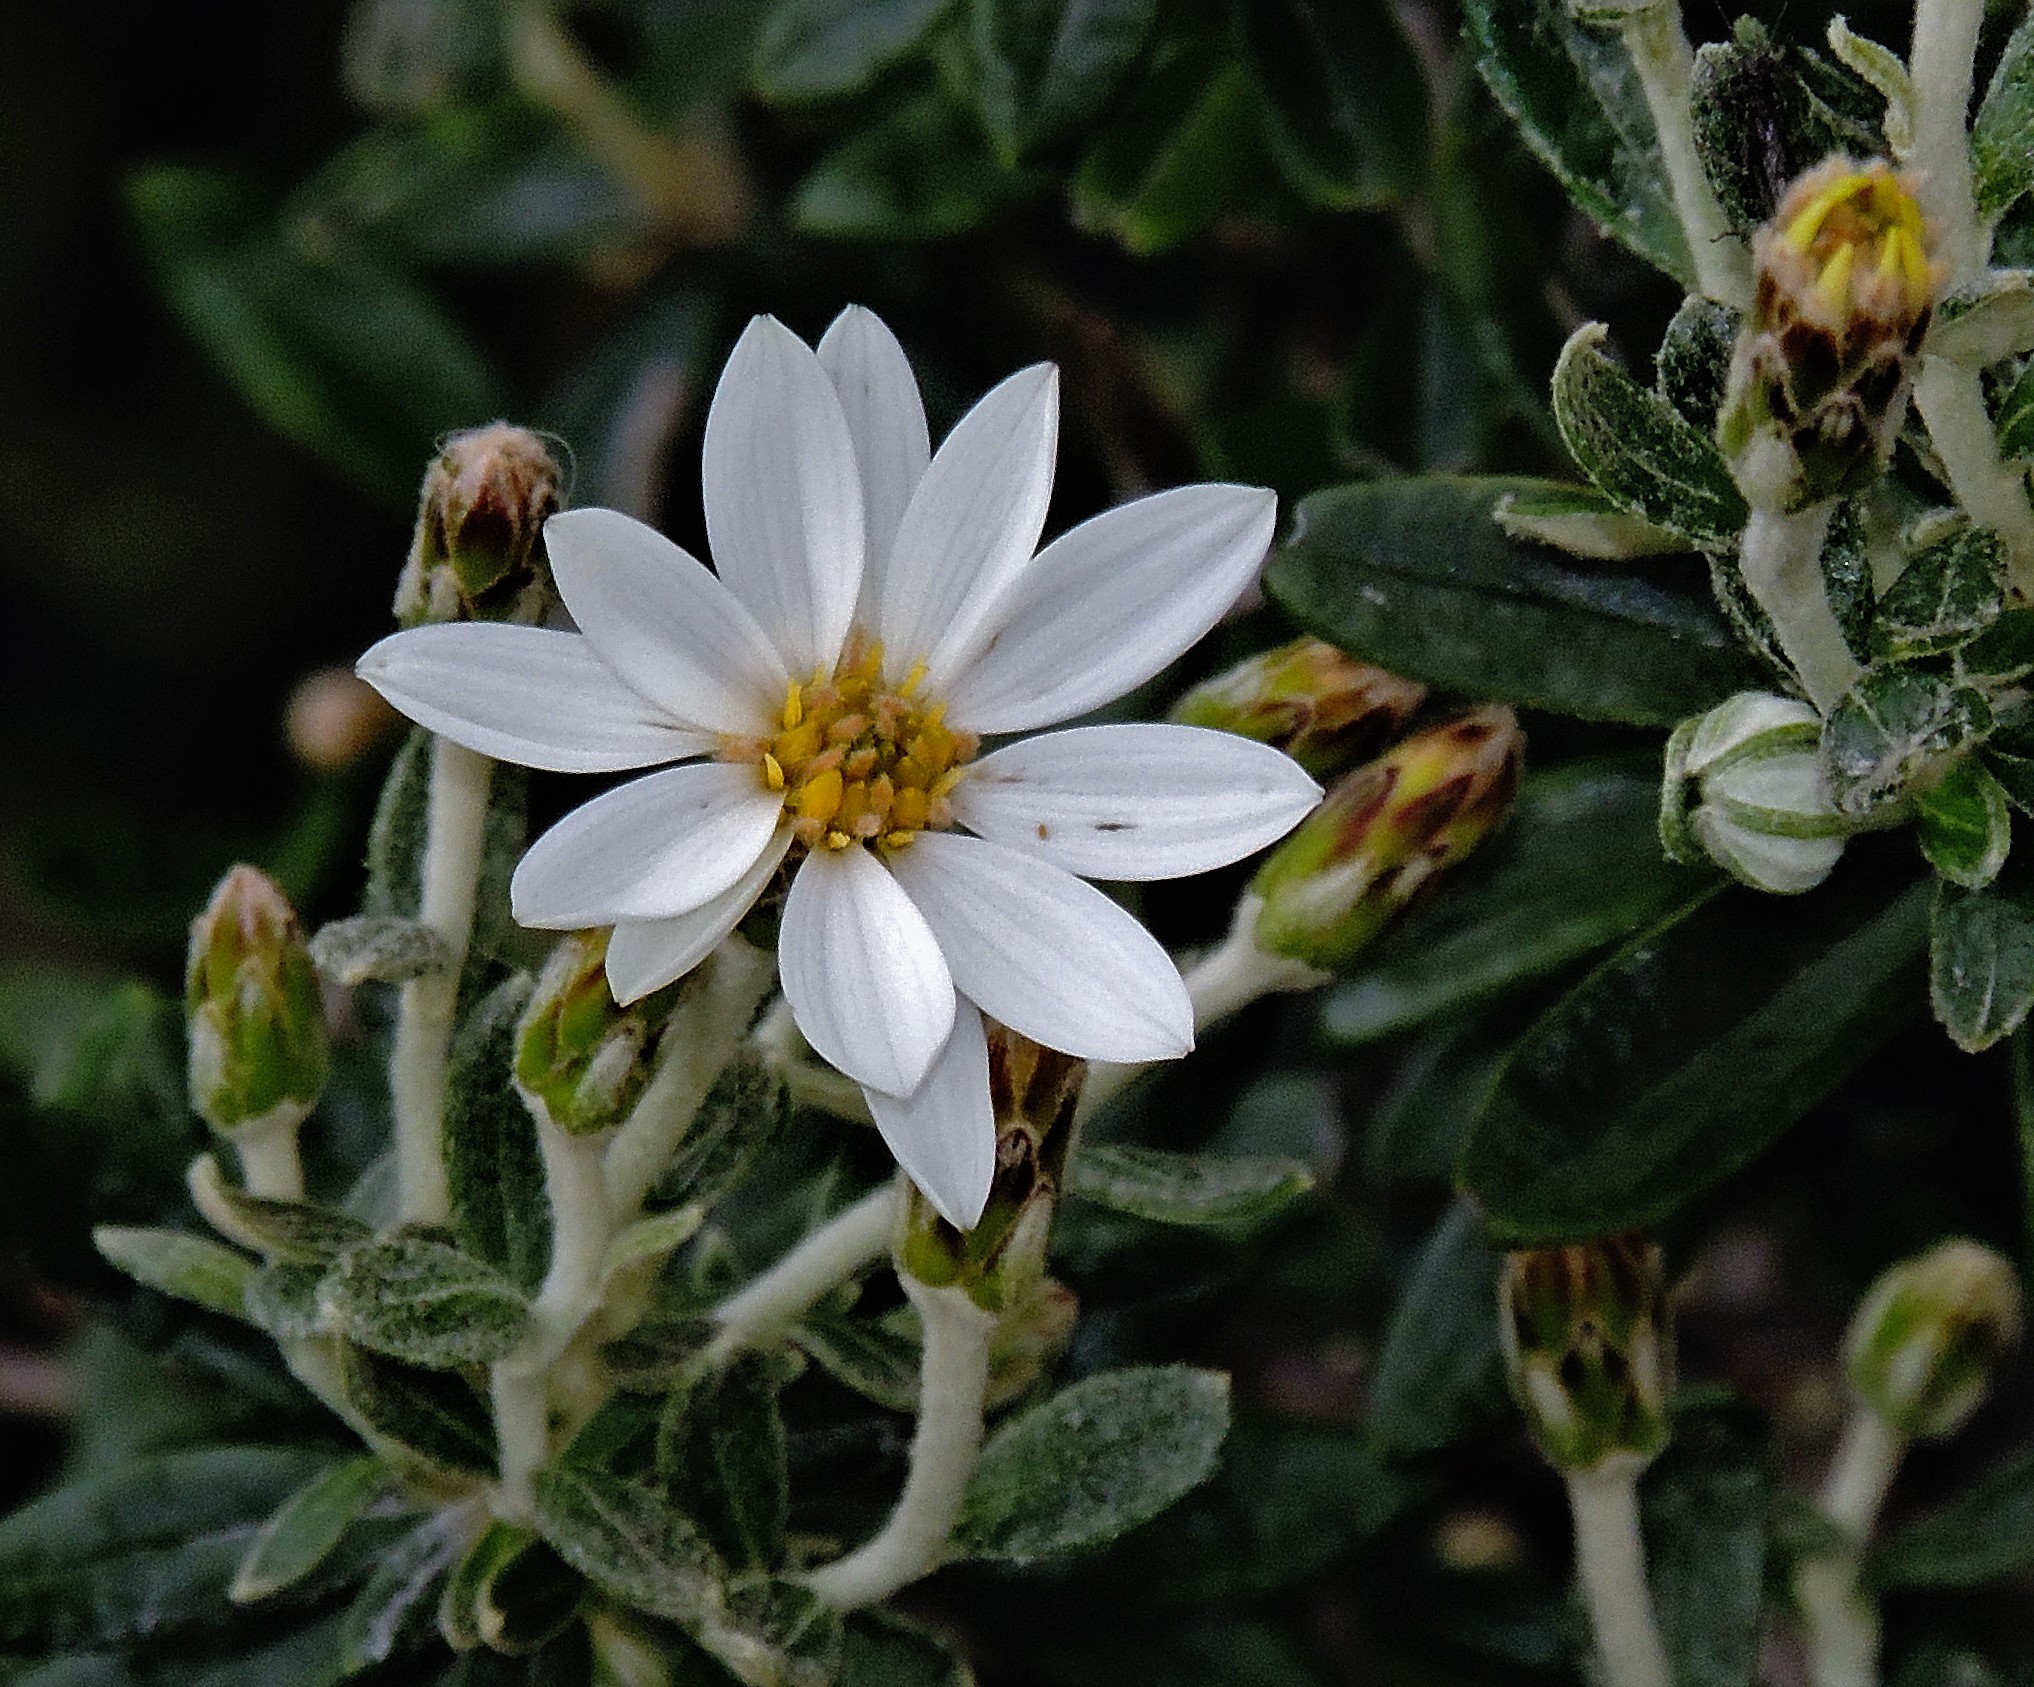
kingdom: Plantae
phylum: Tracheophyta
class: Magnoliopsida
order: Asterales
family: Asteraceae
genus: Chiliotrichum
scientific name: Chiliotrichum diffusum
